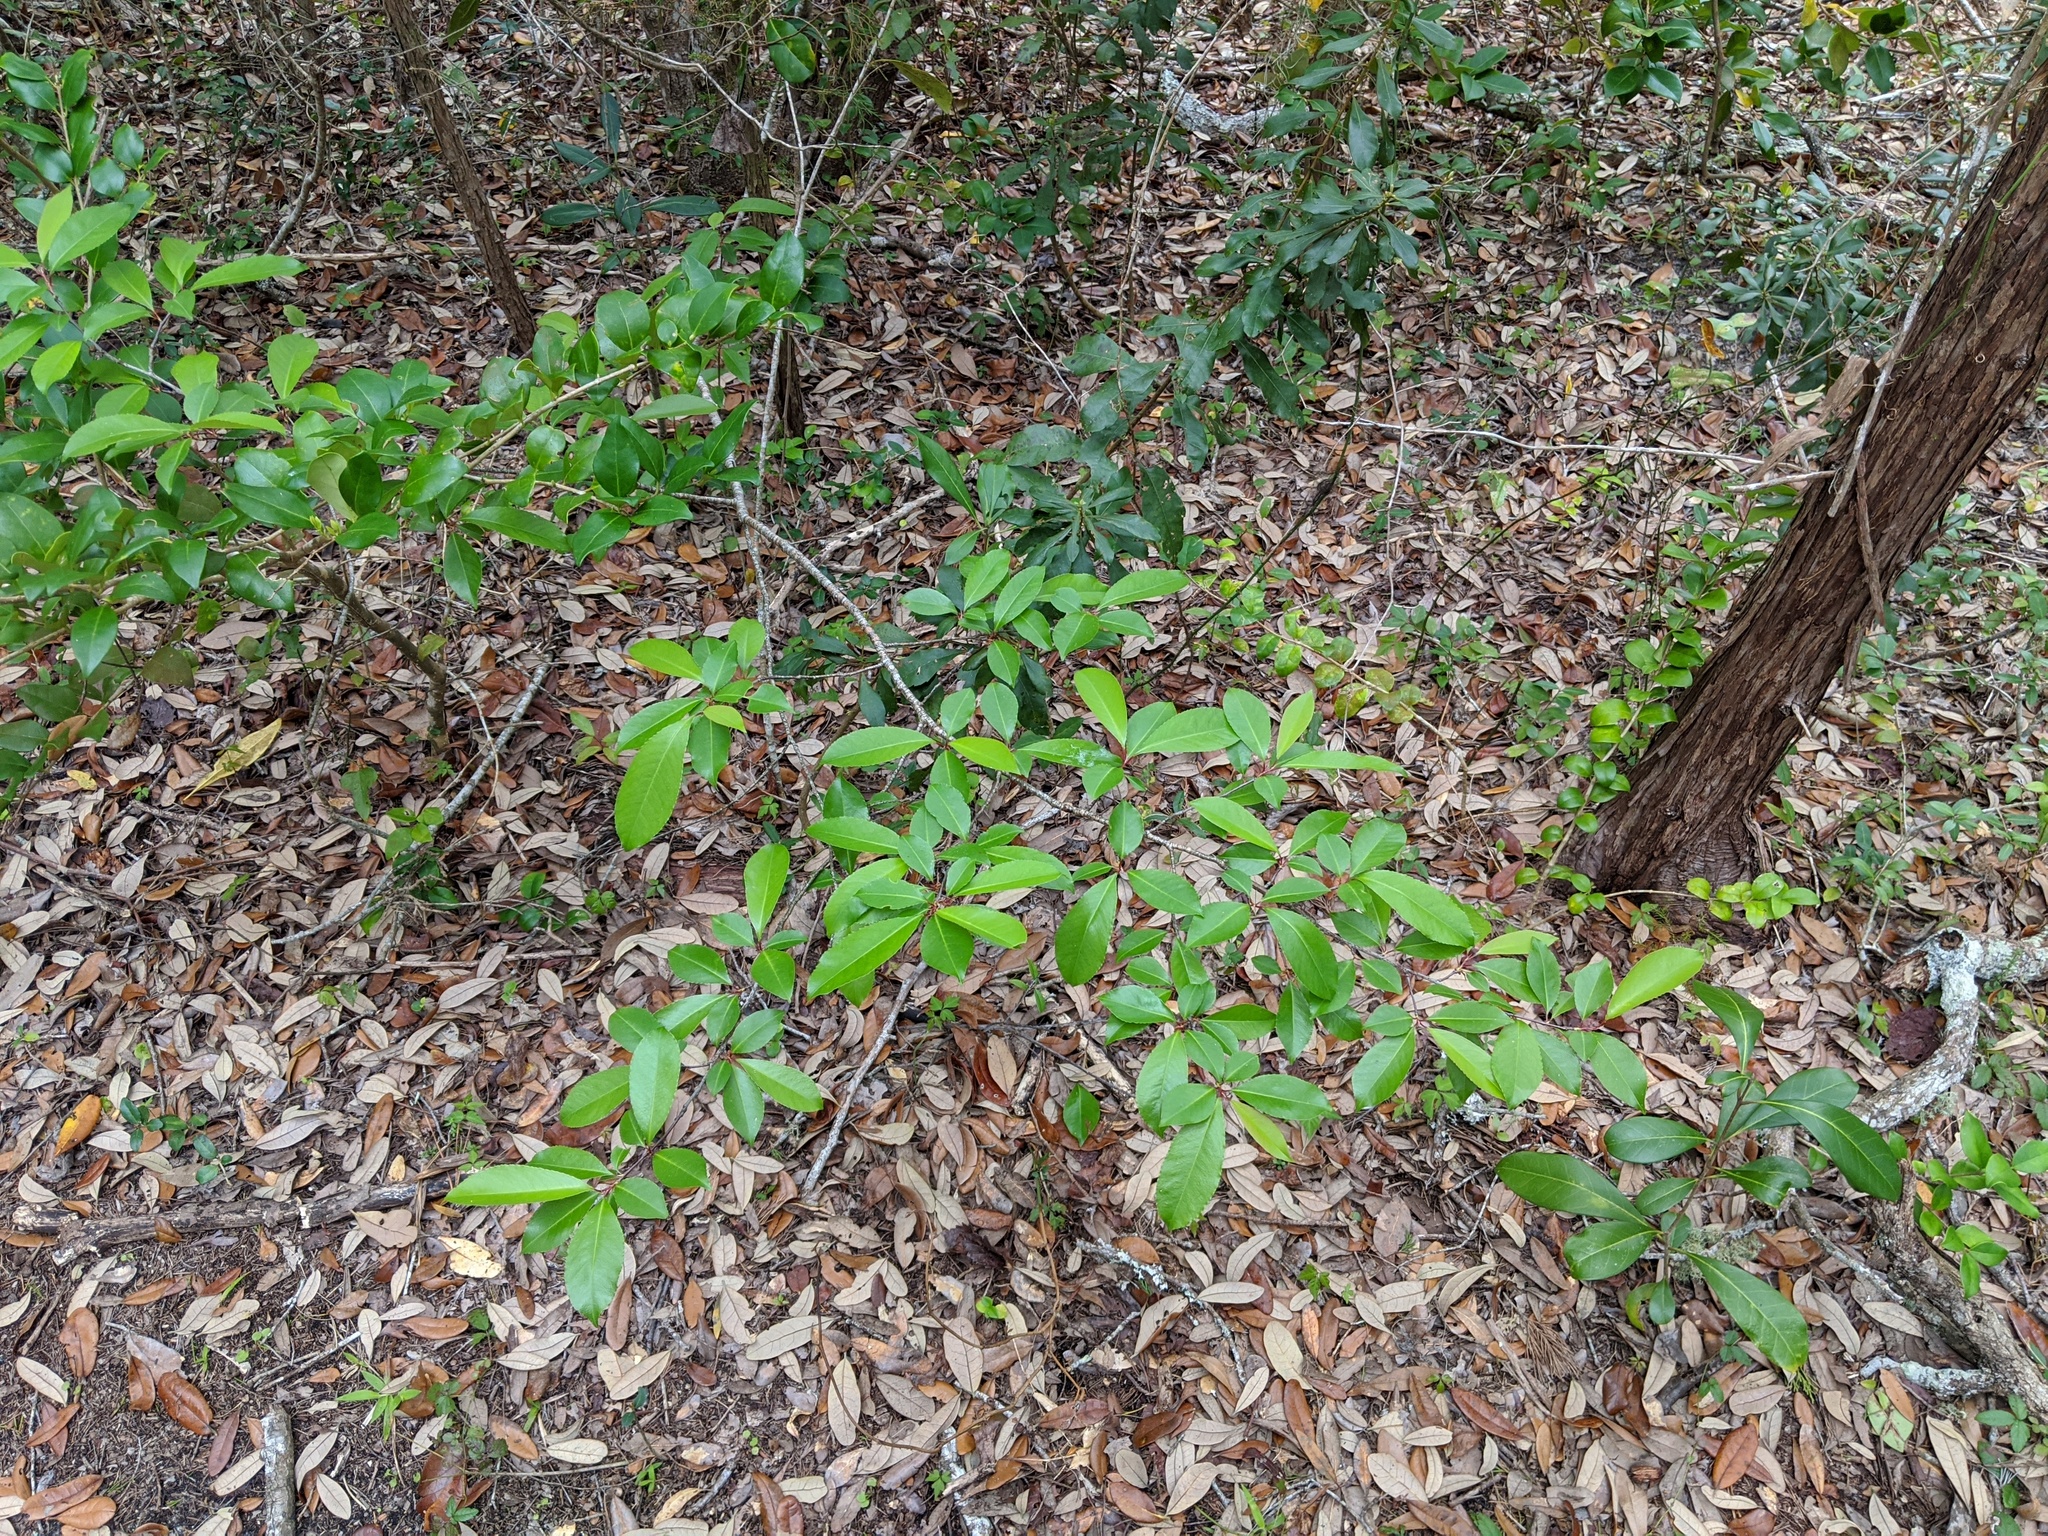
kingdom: Plantae
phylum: Tracheophyta
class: Magnoliopsida
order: Rosales
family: Rosaceae
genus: Prunus
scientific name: Prunus serotina
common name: Black cherry
